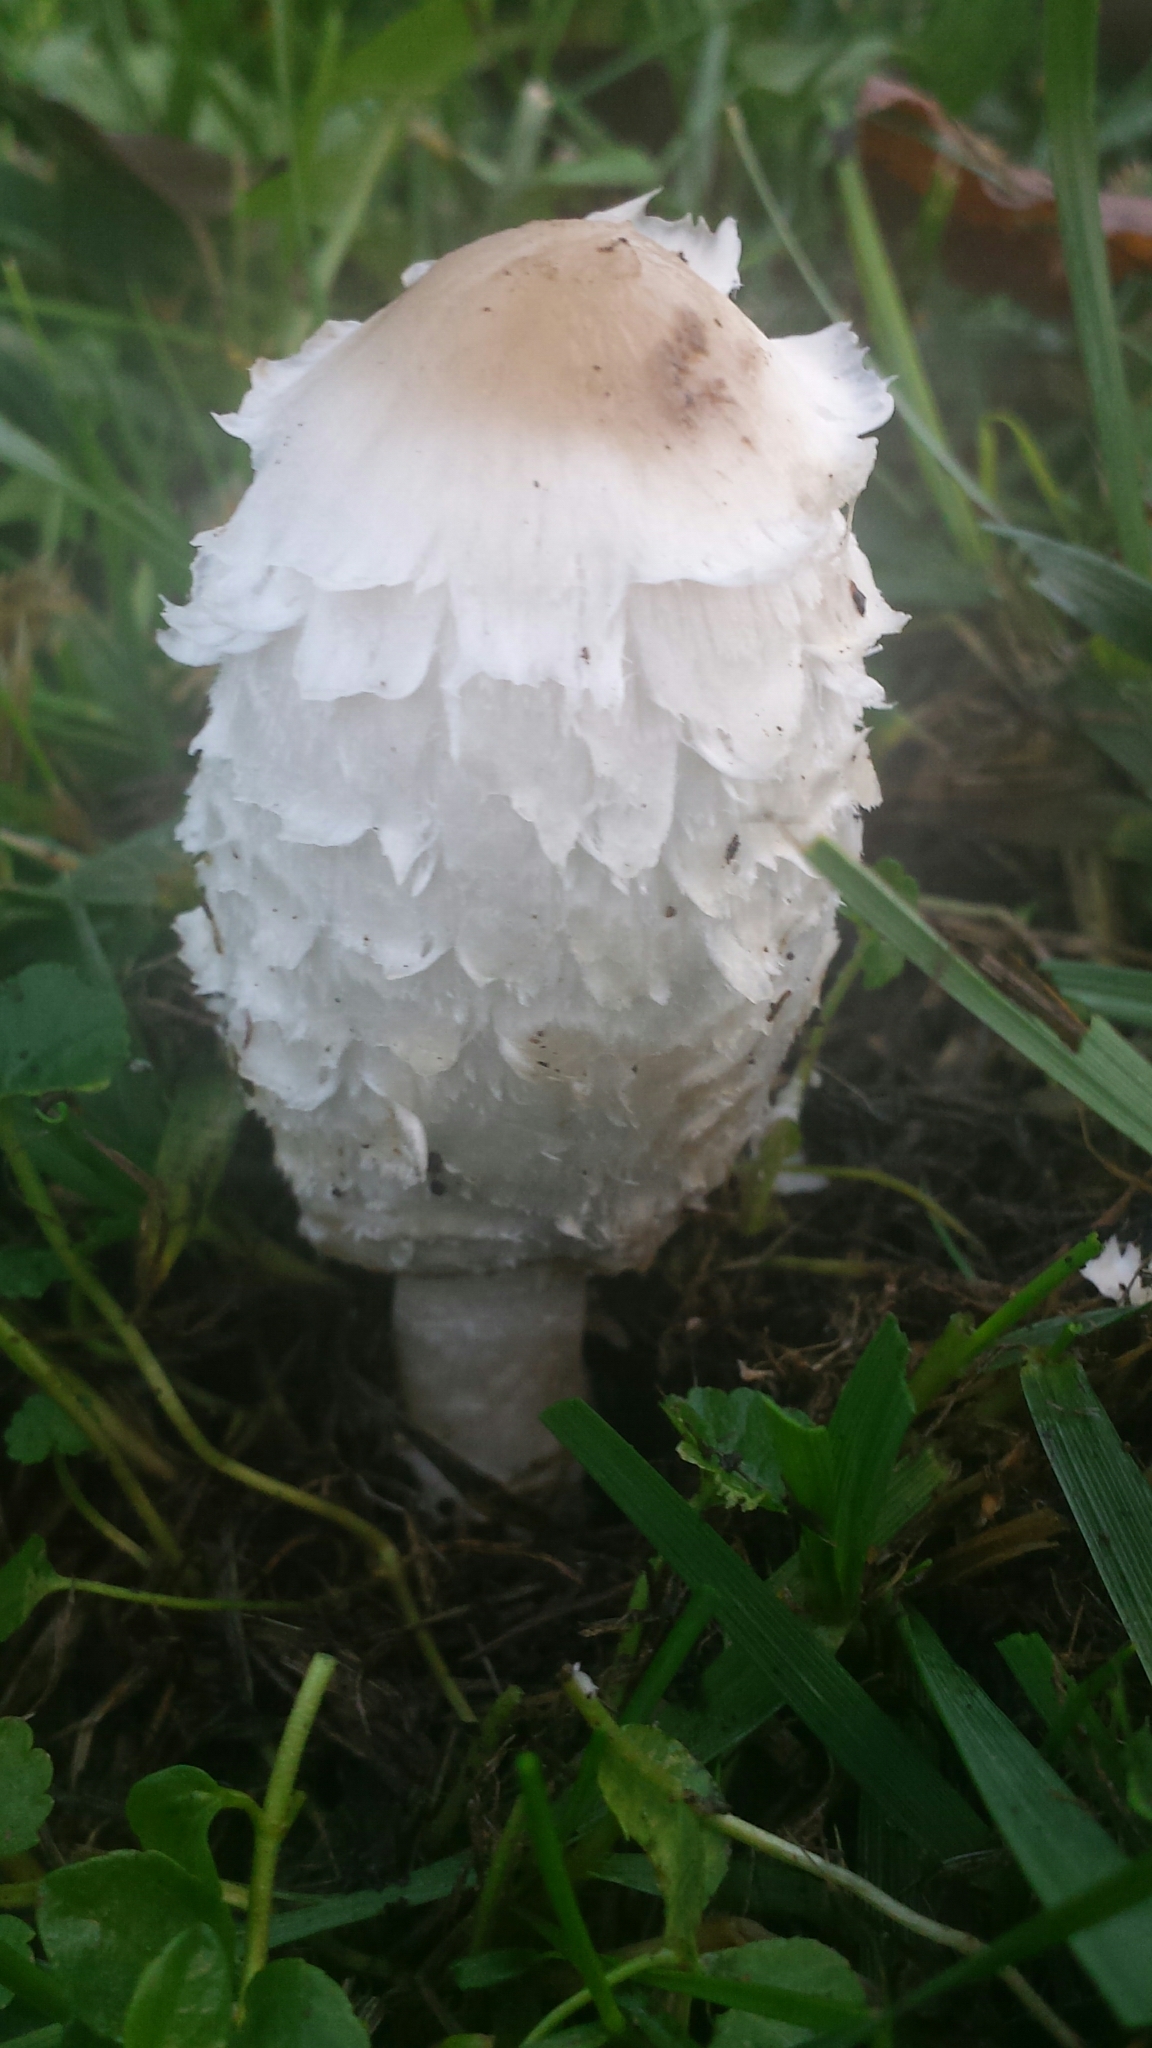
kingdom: Fungi
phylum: Basidiomycota
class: Agaricomycetes
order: Agaricales
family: Agaricaceae
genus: Coprinus
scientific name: Coprinus comatus
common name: Lawyer's wig
